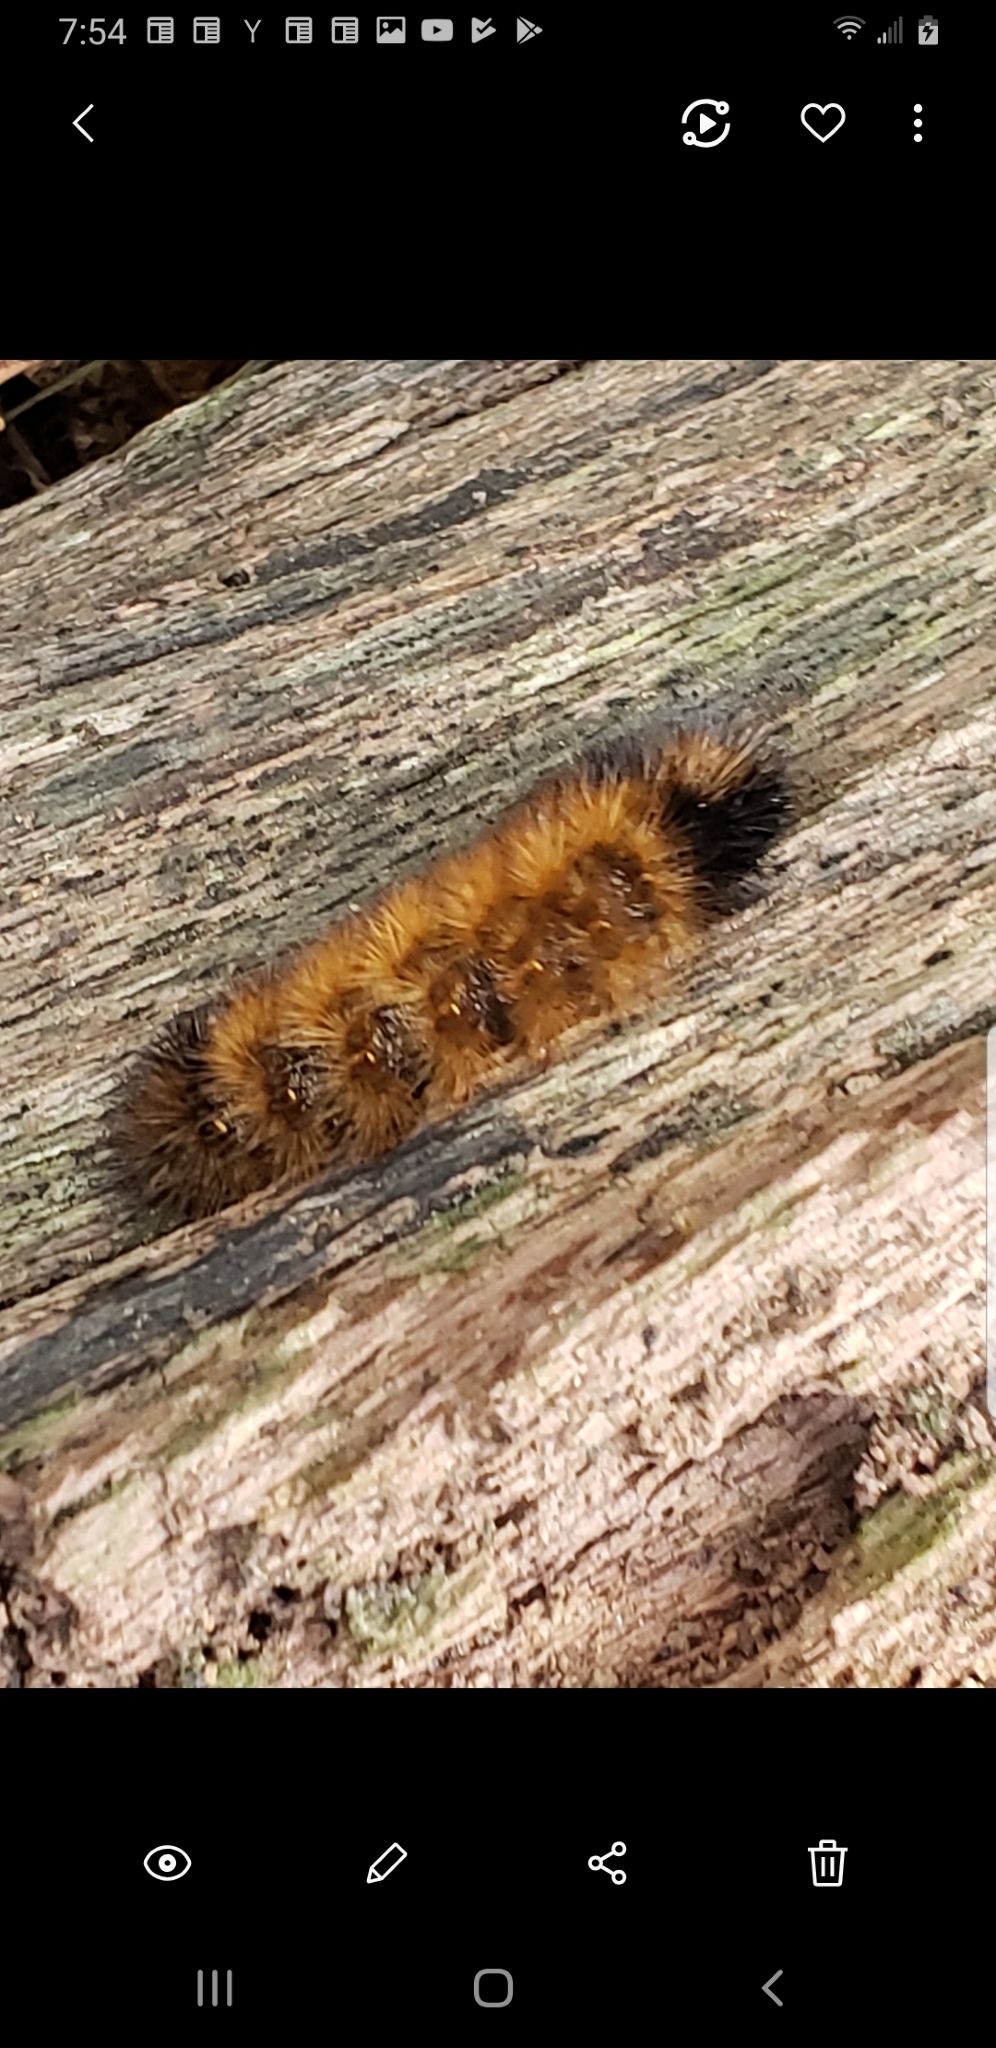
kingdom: Animalia
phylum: Arthropoda
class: Insecta
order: Lepidoptera
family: Erebidae
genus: Pyrrharctia
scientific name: Pyrrharctia isabella
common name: Isabella tiger moth
